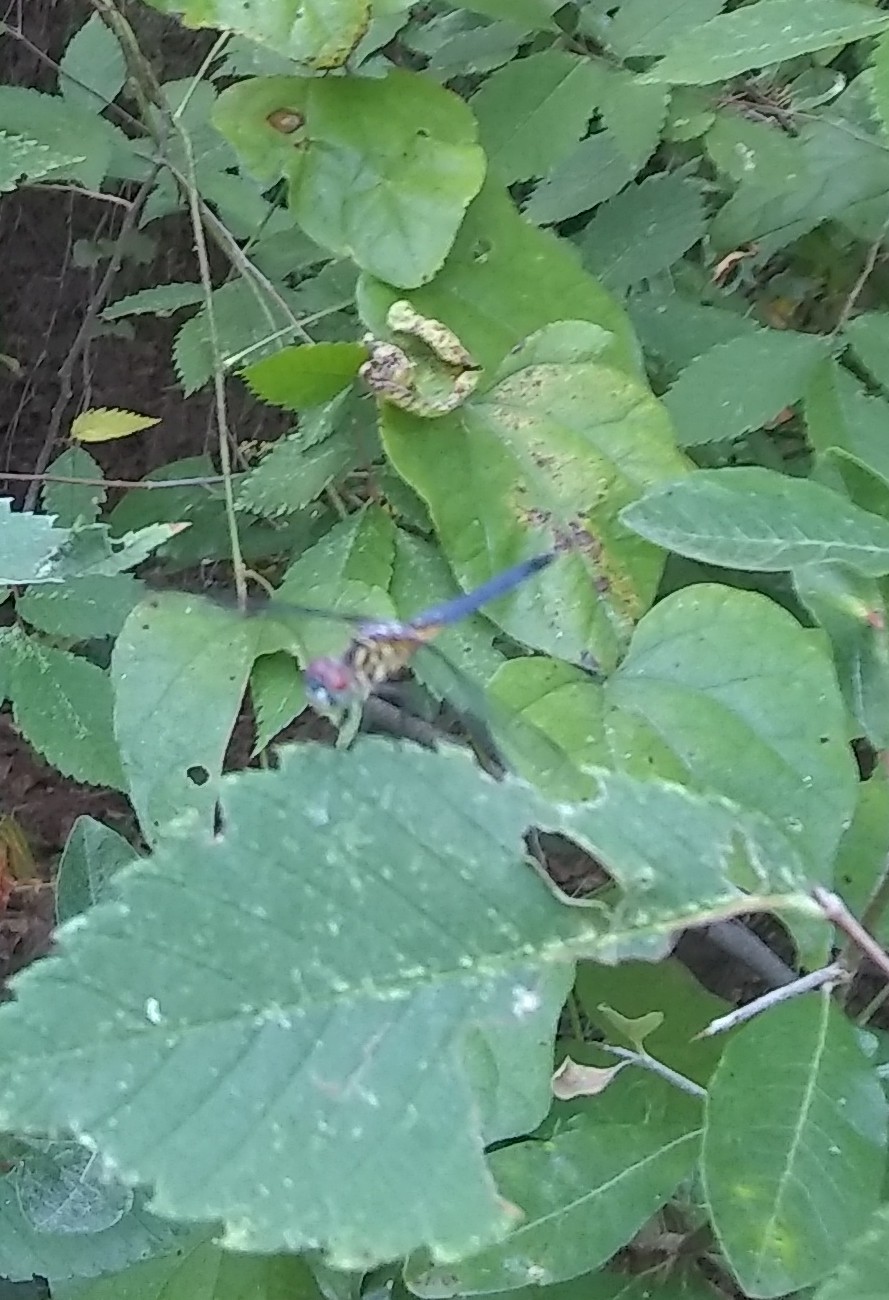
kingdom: Animalia
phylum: Arthropoda
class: Insecta
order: Odonata
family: Libellulidae
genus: Pachydiplax
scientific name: Pachydiplax longipennis
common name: Blue dasher
